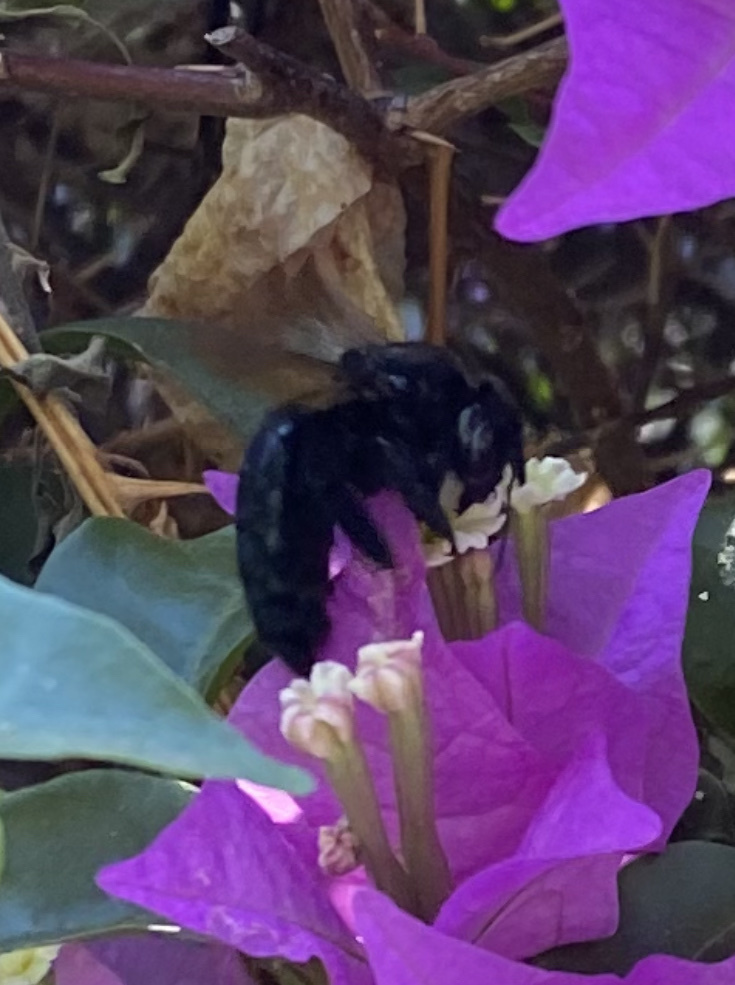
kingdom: Animalia
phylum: Arthropoda
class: Insecta
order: Hymenoptera
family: Apidae
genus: Xylocopa
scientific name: Xylocopa sonorina
